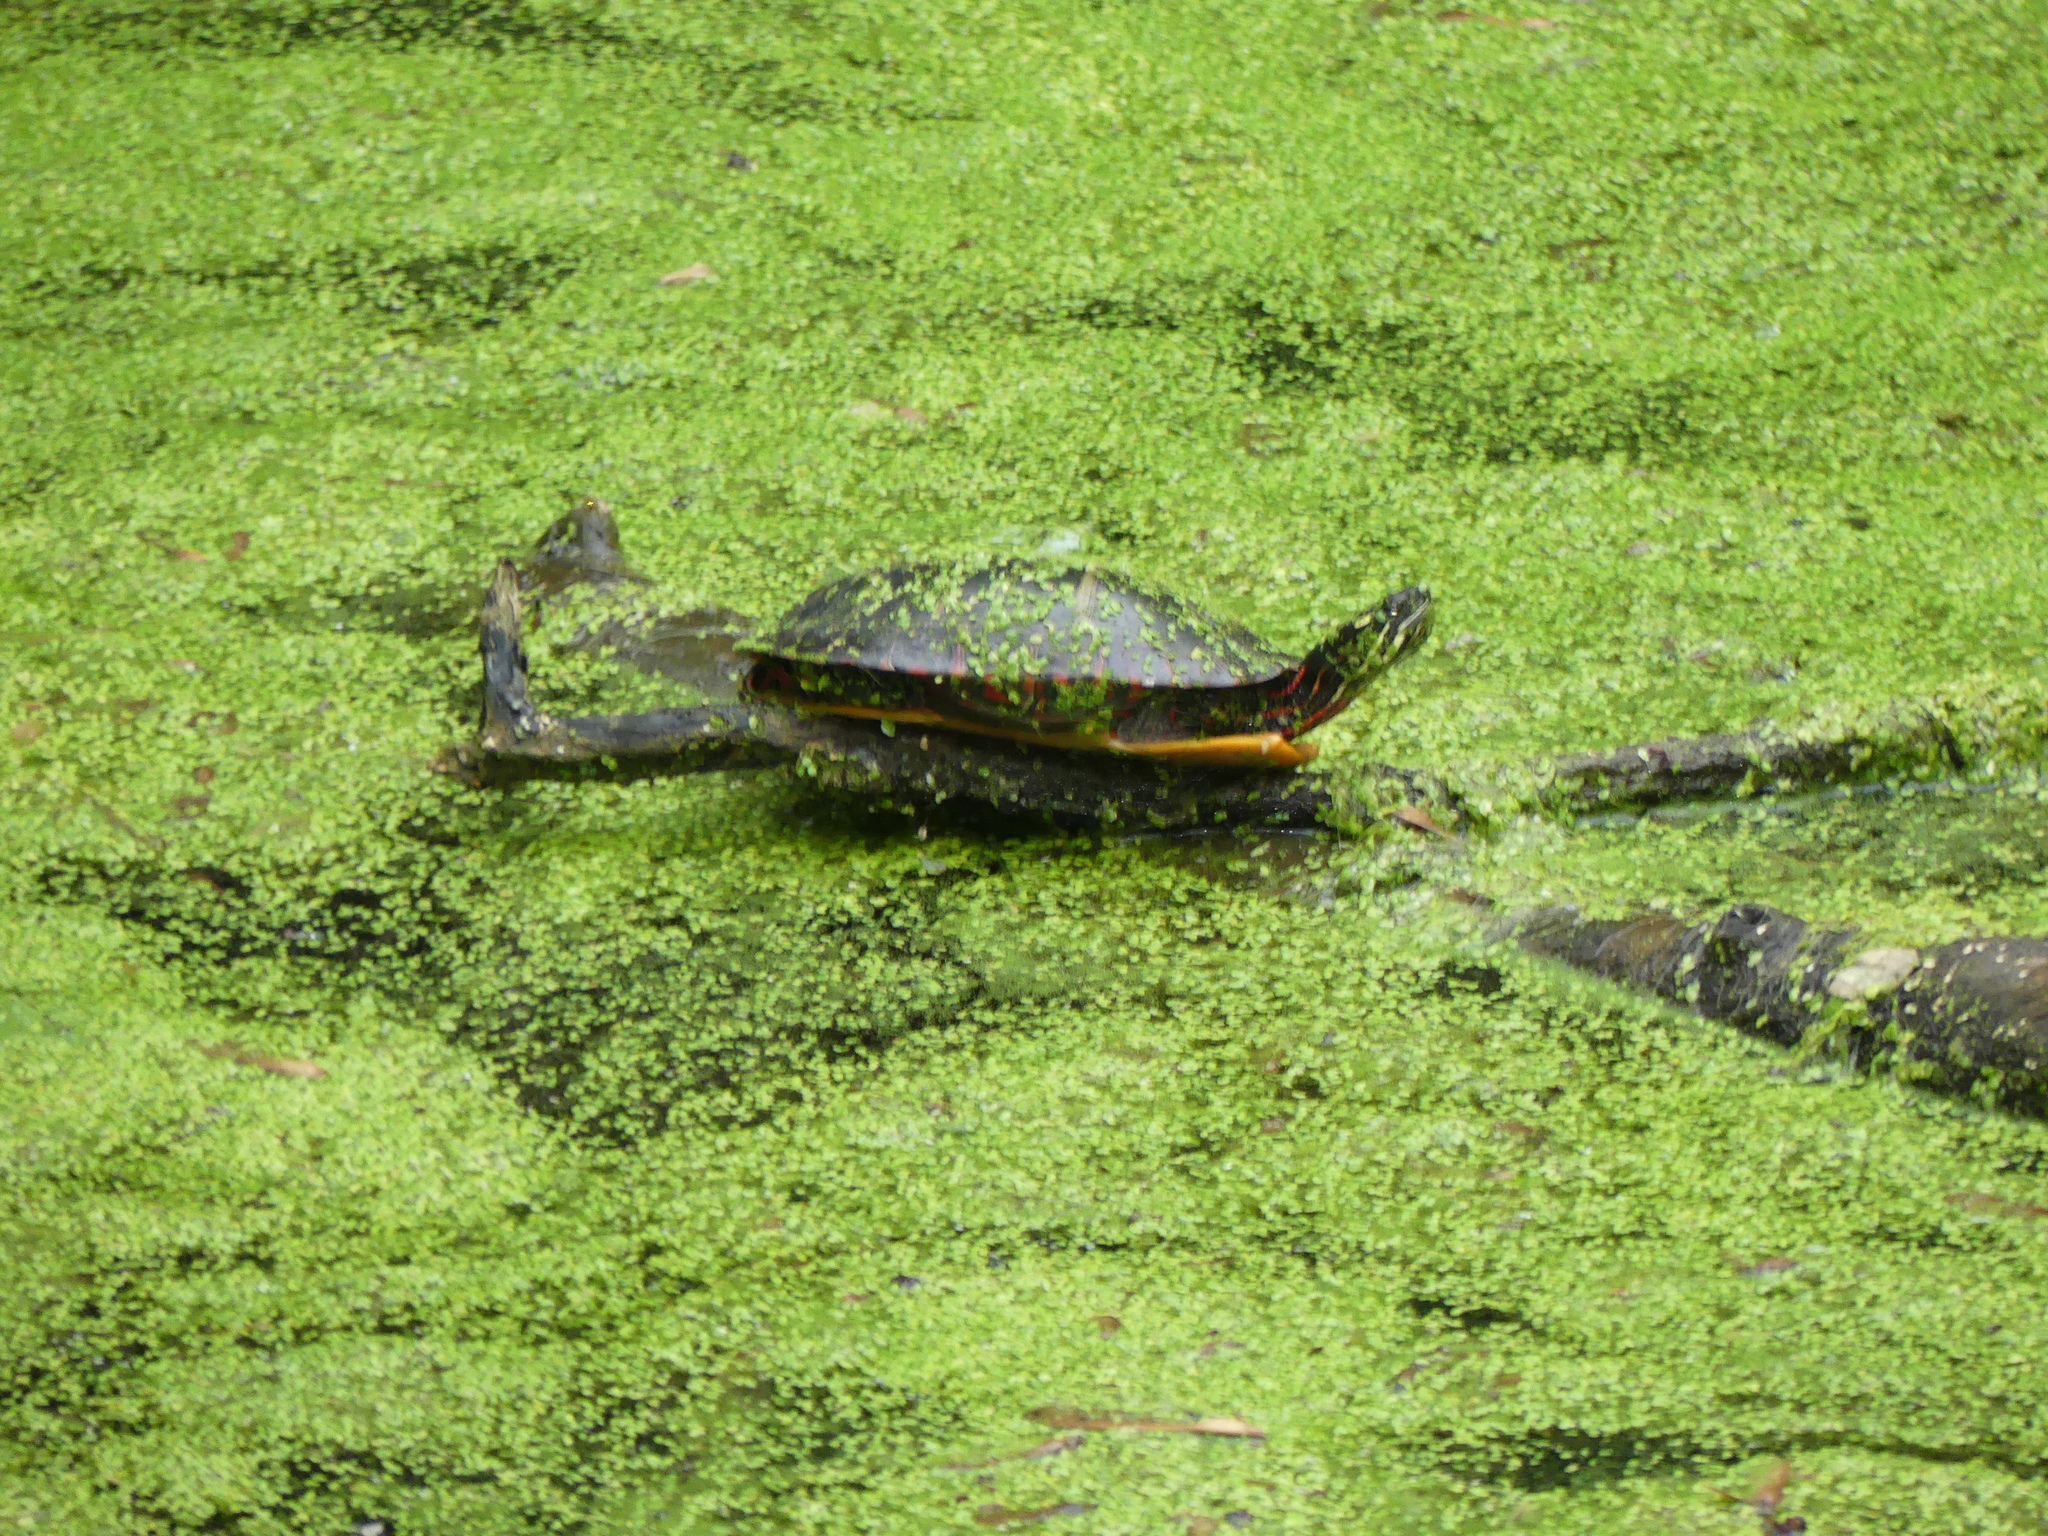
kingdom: Animalia
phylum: Chordata
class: Testudines
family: Emydidae
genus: Chrysemys
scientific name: Chrysemys picta
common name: Painted turtle
